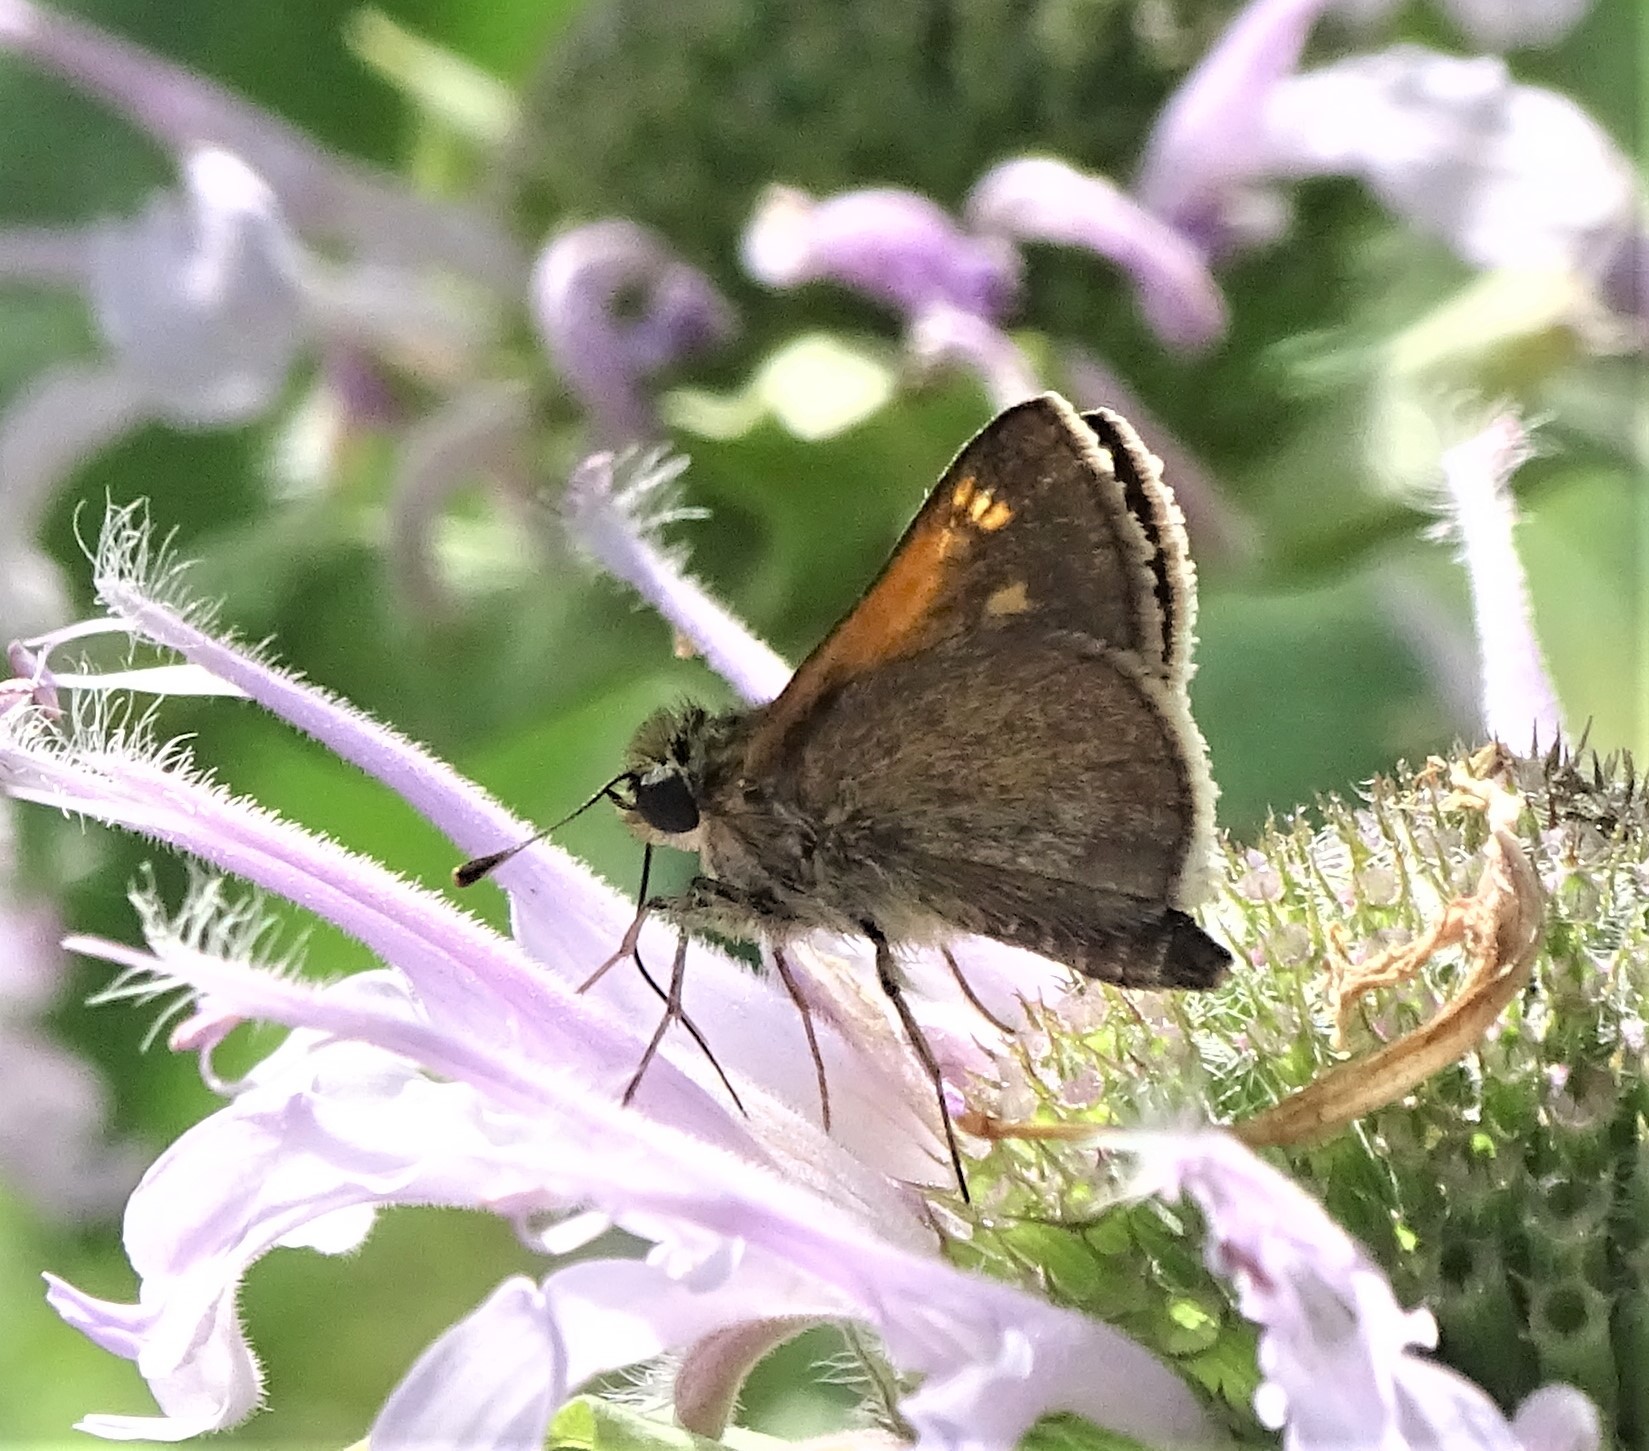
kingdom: Animalia
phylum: Arthropoda
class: Insecta
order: Lepidoptera
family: Hesperiidae
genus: Polites
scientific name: Polites themistocles
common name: Tawny-edged skipper
